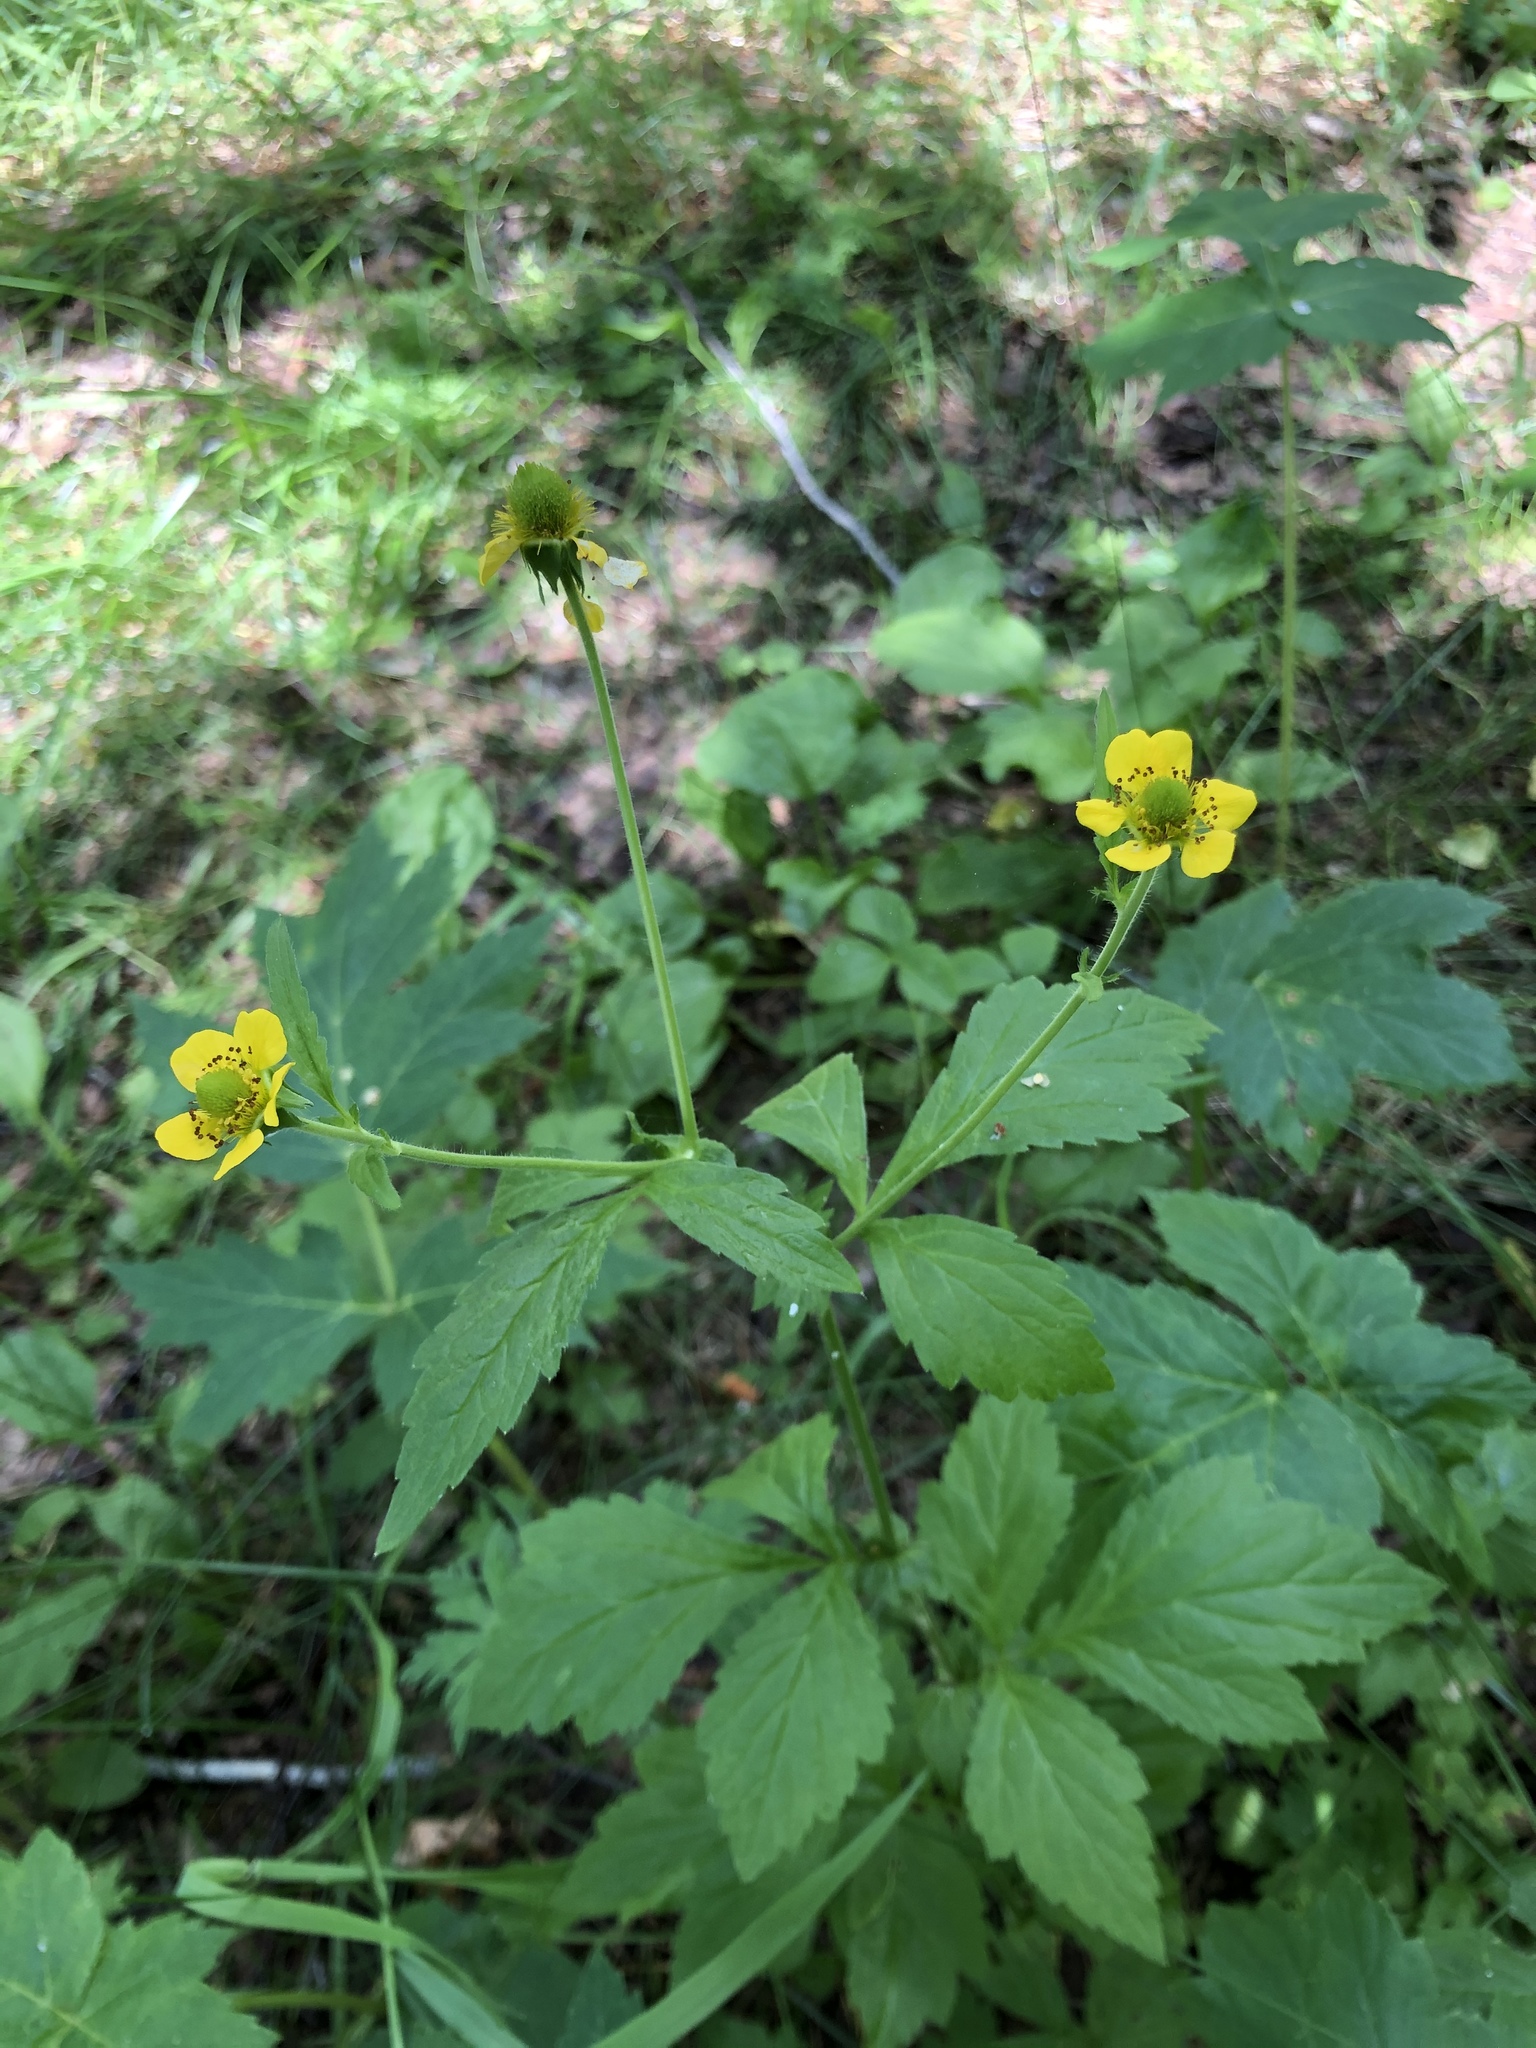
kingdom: Plantae
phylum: Tracheophyta
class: Magnoliopsida
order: Rosales
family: Rosaceae
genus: Geum
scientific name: Geum aleppicum
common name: Yellow avens
